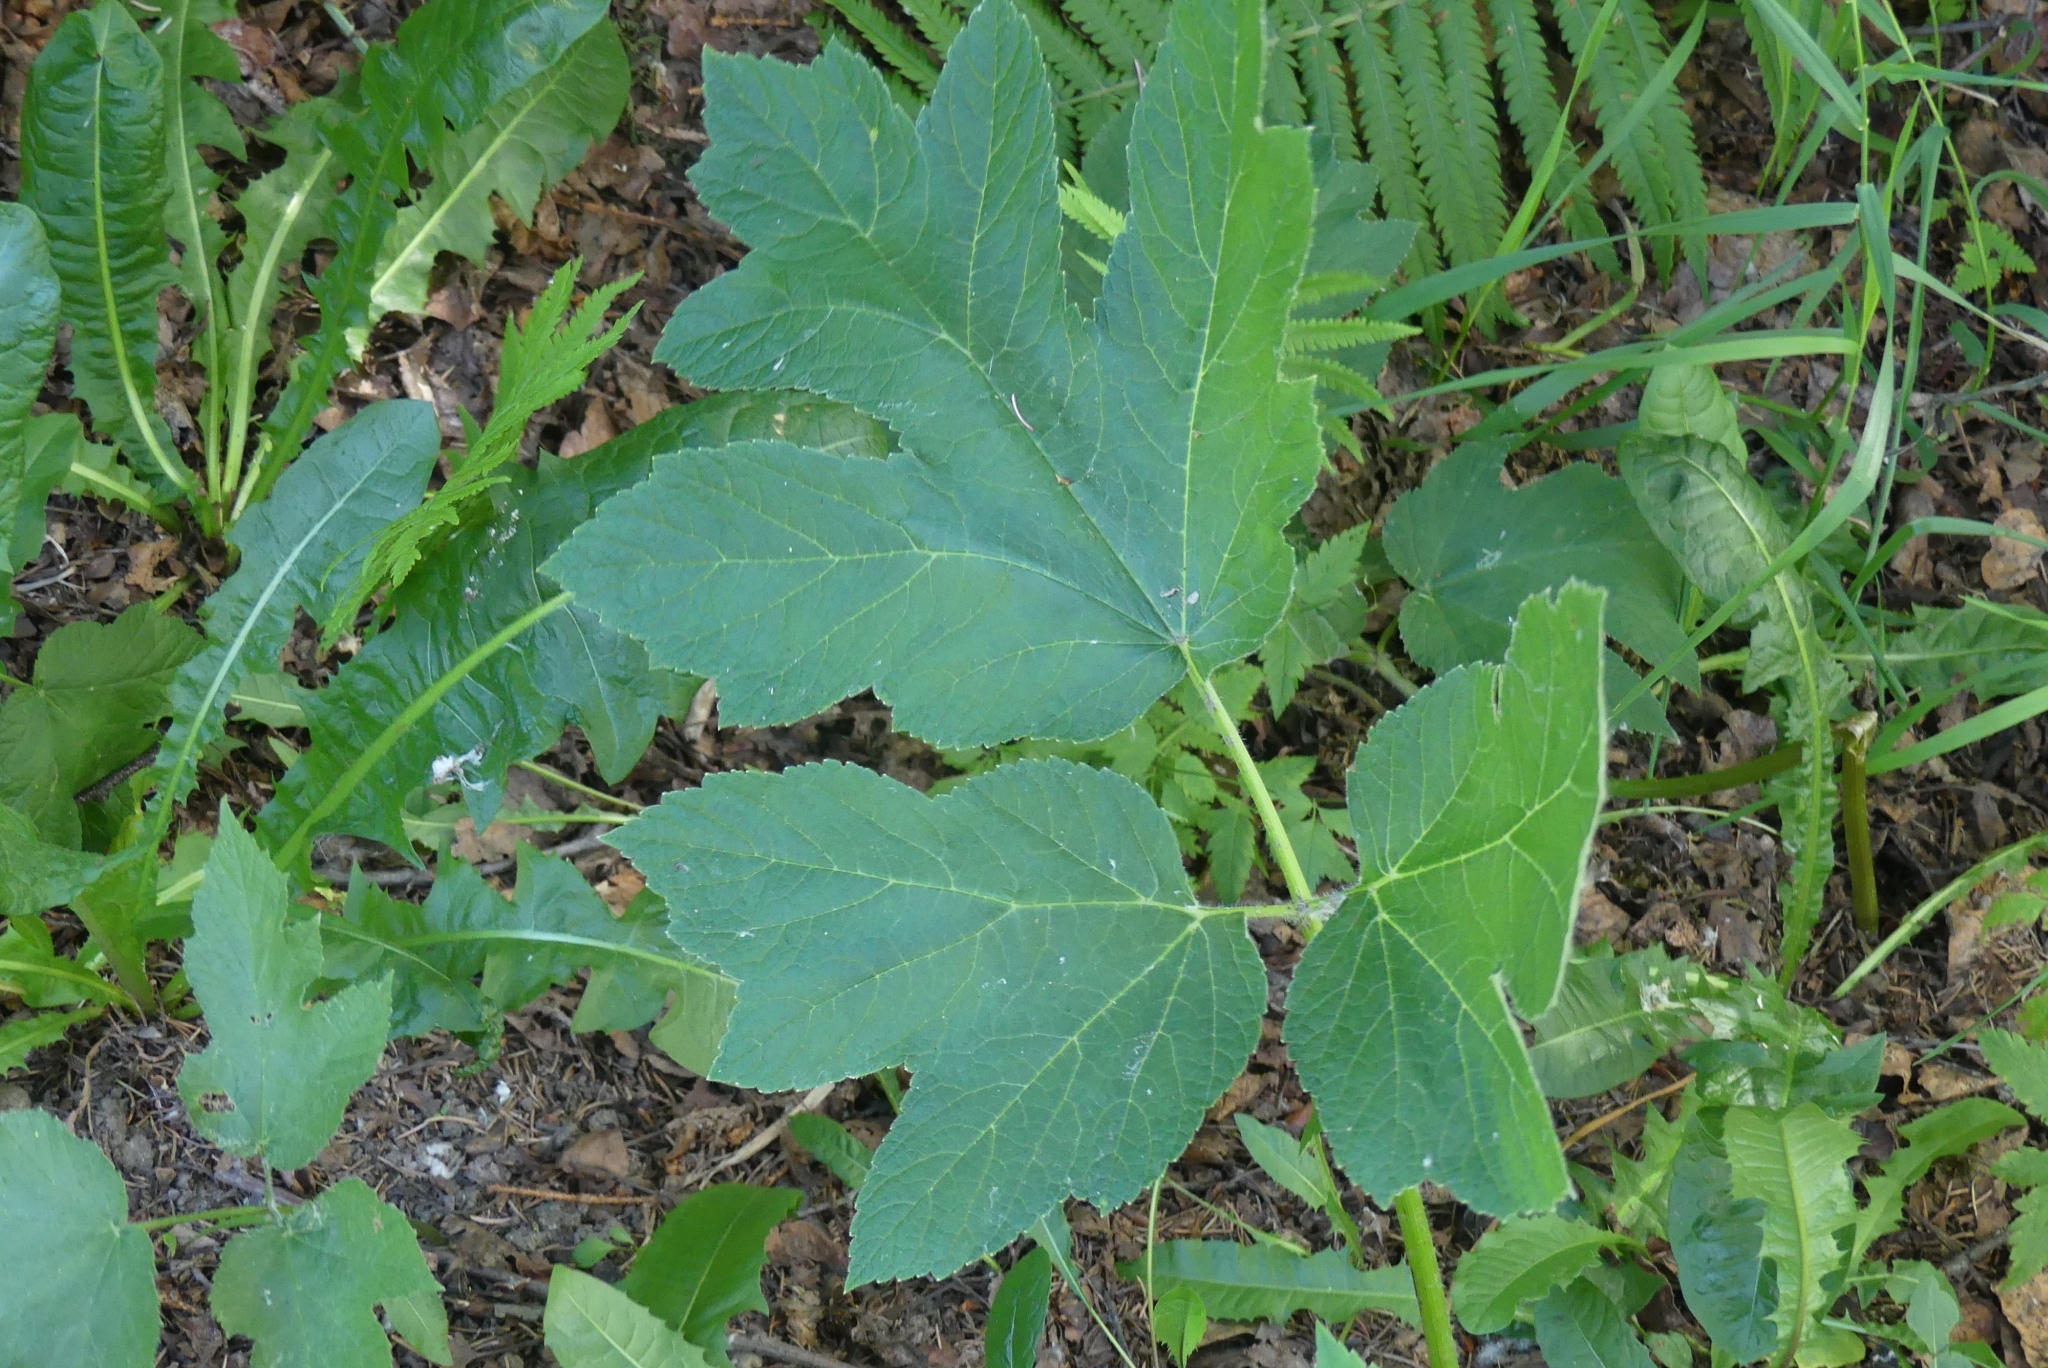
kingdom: Plantae
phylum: Tracheophyta
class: Magnoliopsida
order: Apiales
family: Apiaceae
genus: Heracleum
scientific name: Heracleum maximum
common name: American cow parsnip
